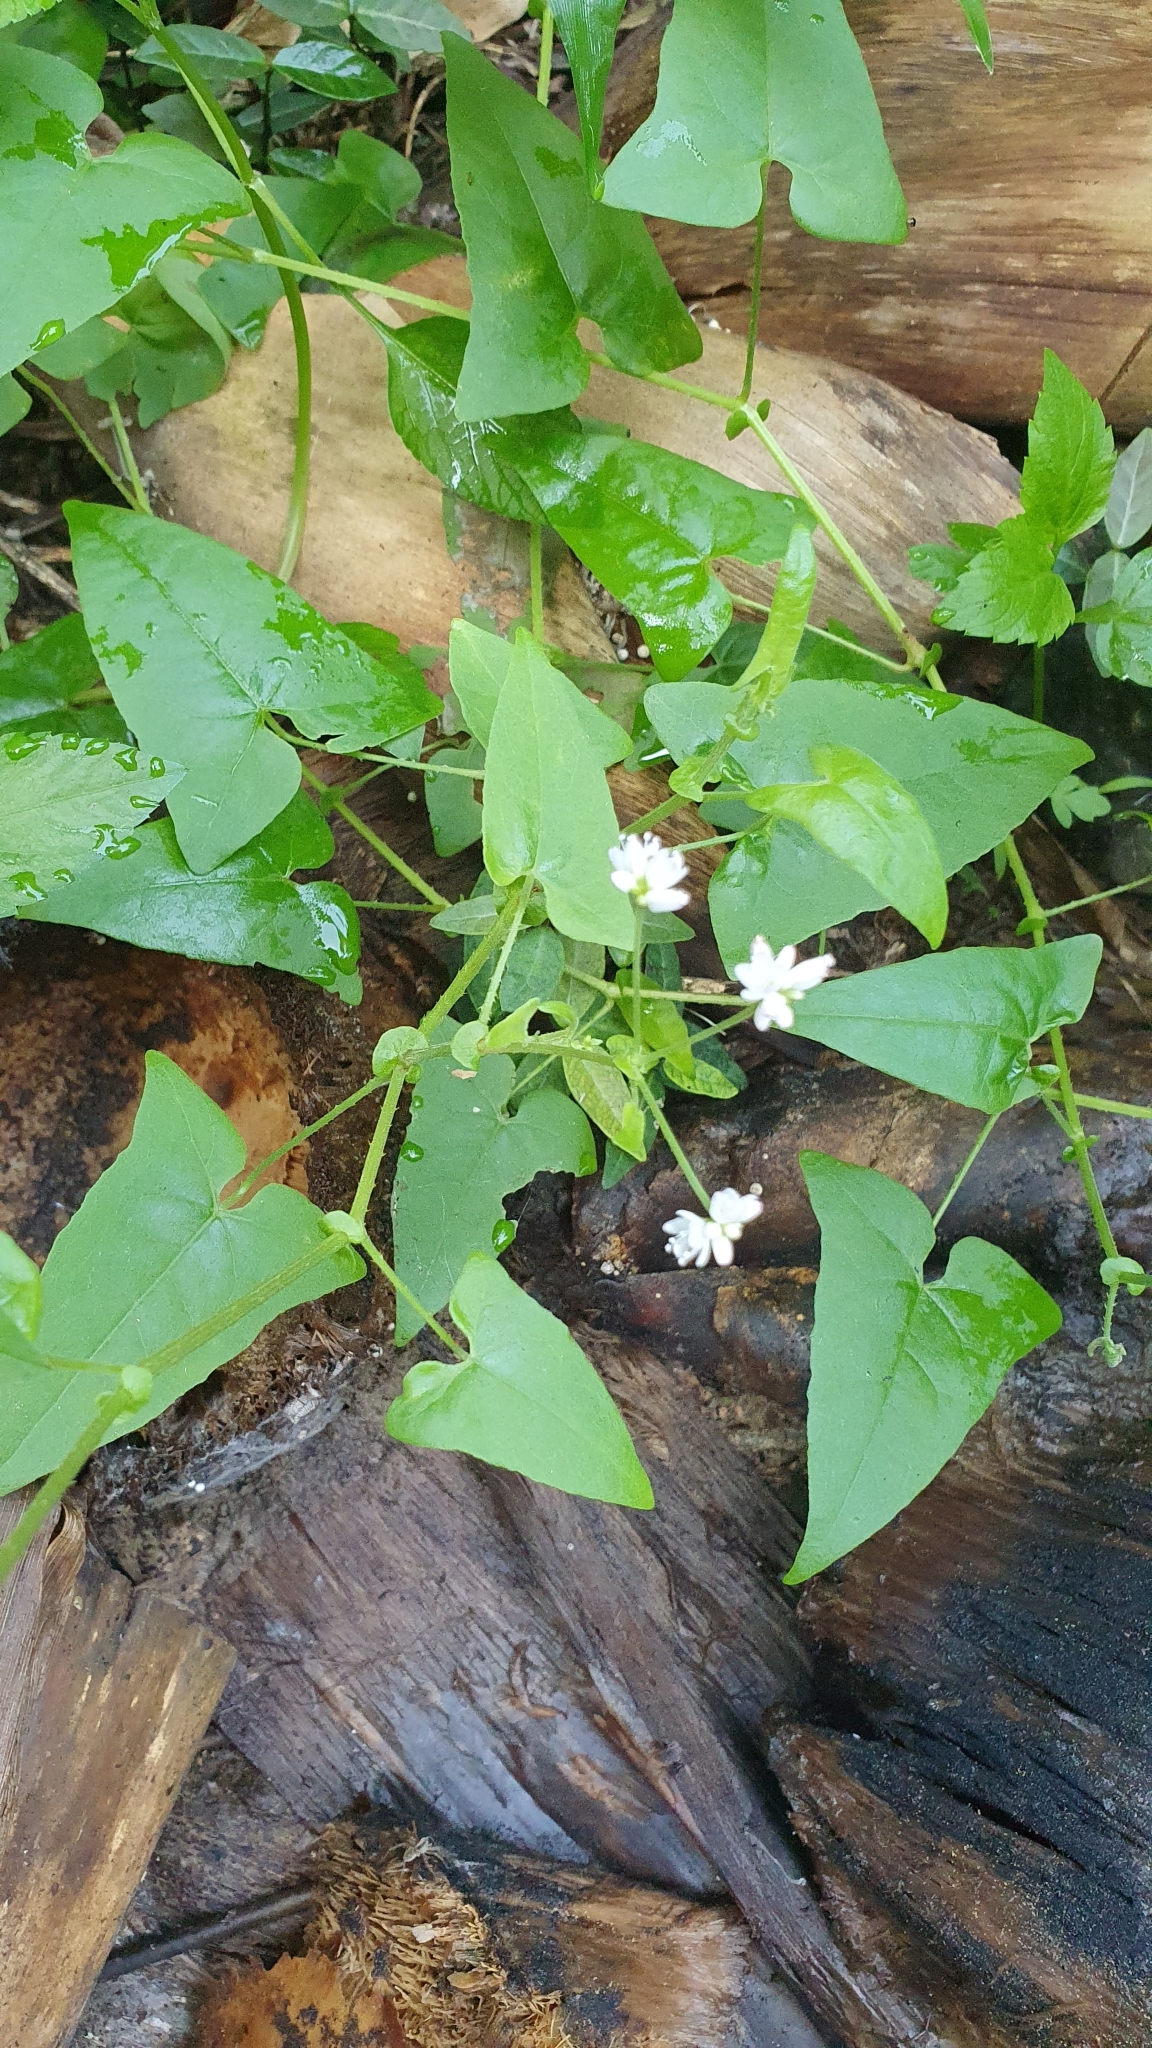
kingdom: Plantae
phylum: Tracheophyta
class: Magnoliopsida
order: Caryophyllales
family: Polygonaceae
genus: Persicaria
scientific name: Persicaria senticosa
